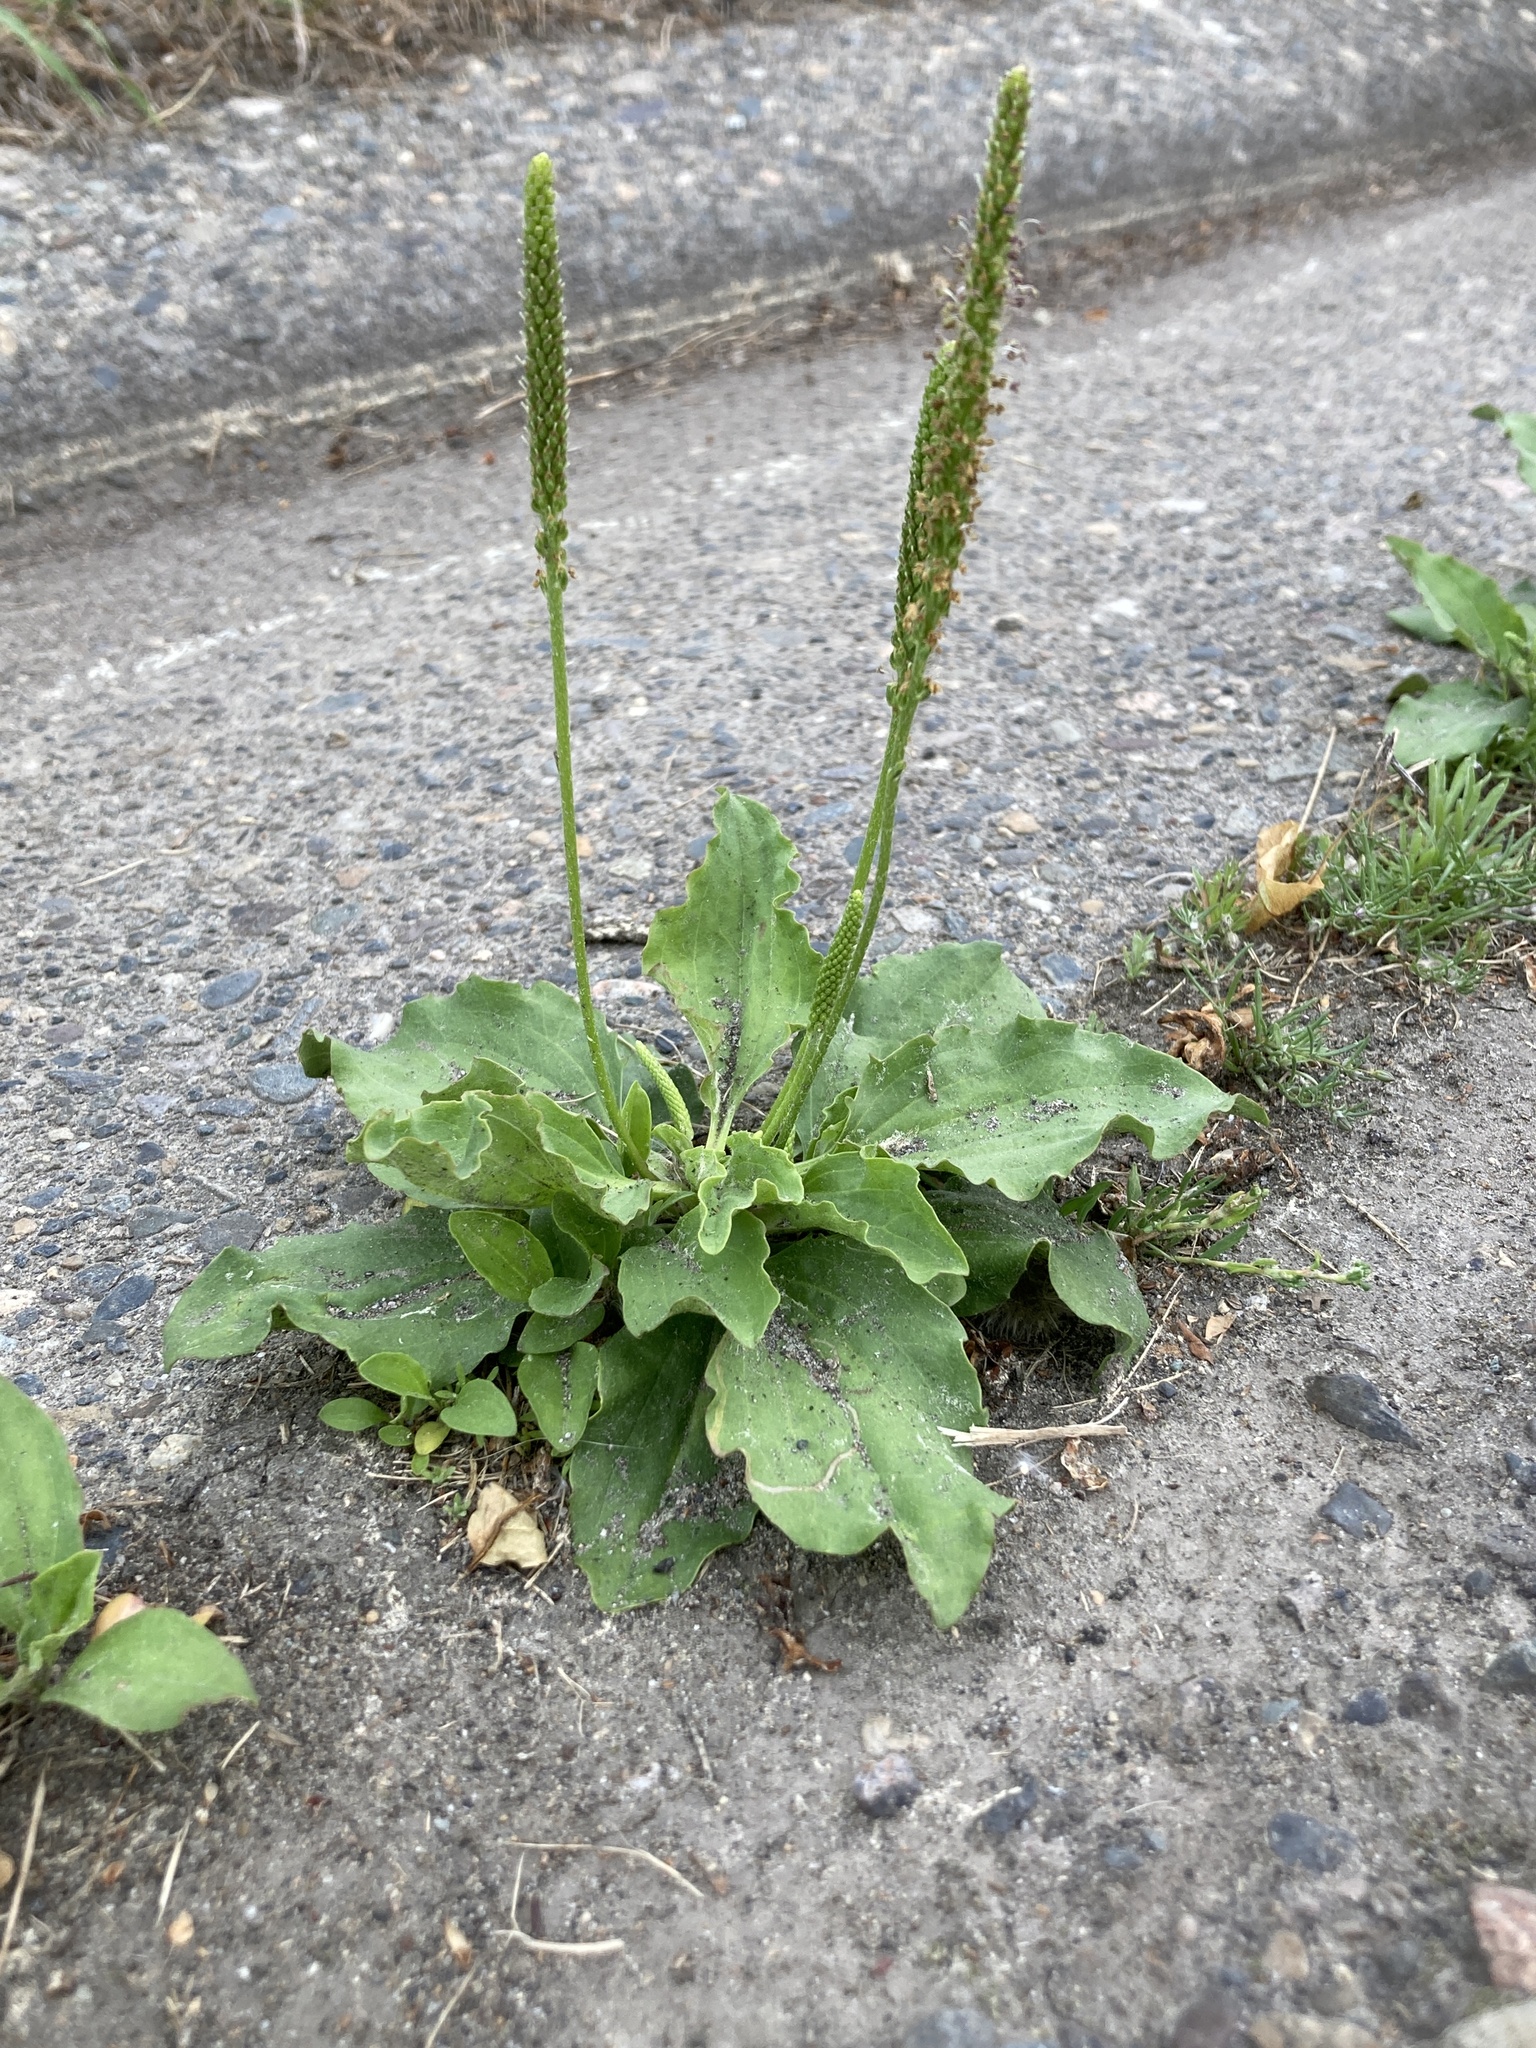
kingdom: Plantae
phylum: Tracheophyta
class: Magnoliopsida
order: Lamiales
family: Plantaginaceae
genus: Plantago
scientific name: Plantago major
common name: Common plantain
